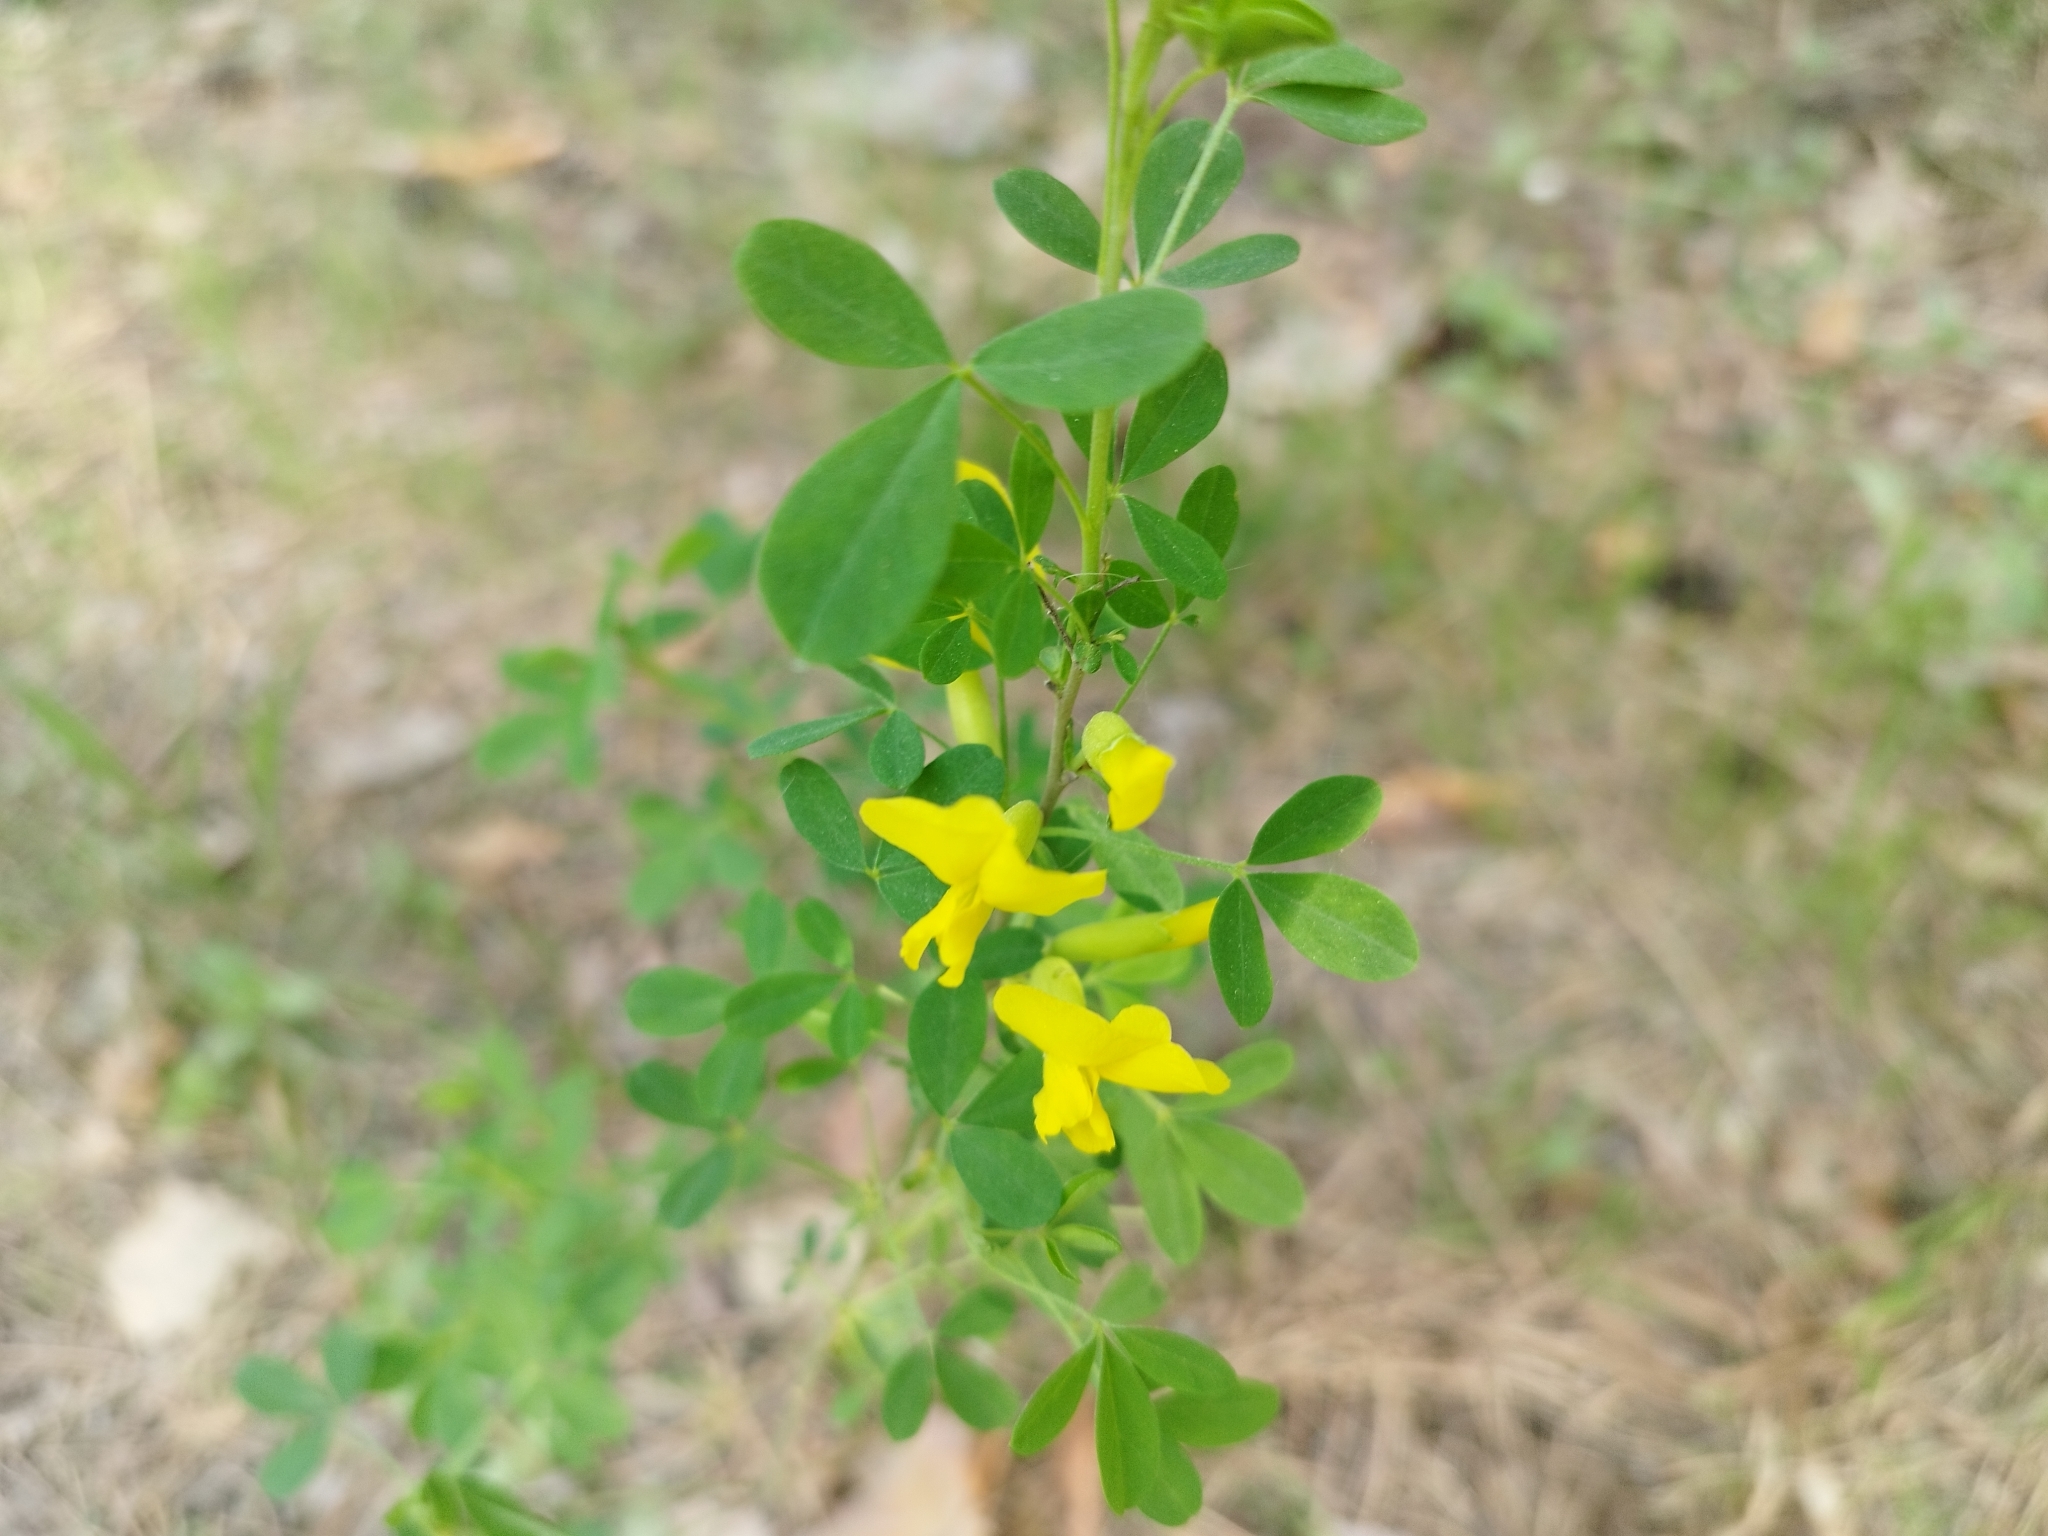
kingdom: Plantae
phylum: Tracheophyta
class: Magnoliopsida
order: Fabales
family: Fabaceae
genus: Chamaecytisus
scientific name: Chamaecytisus ruthenicus
